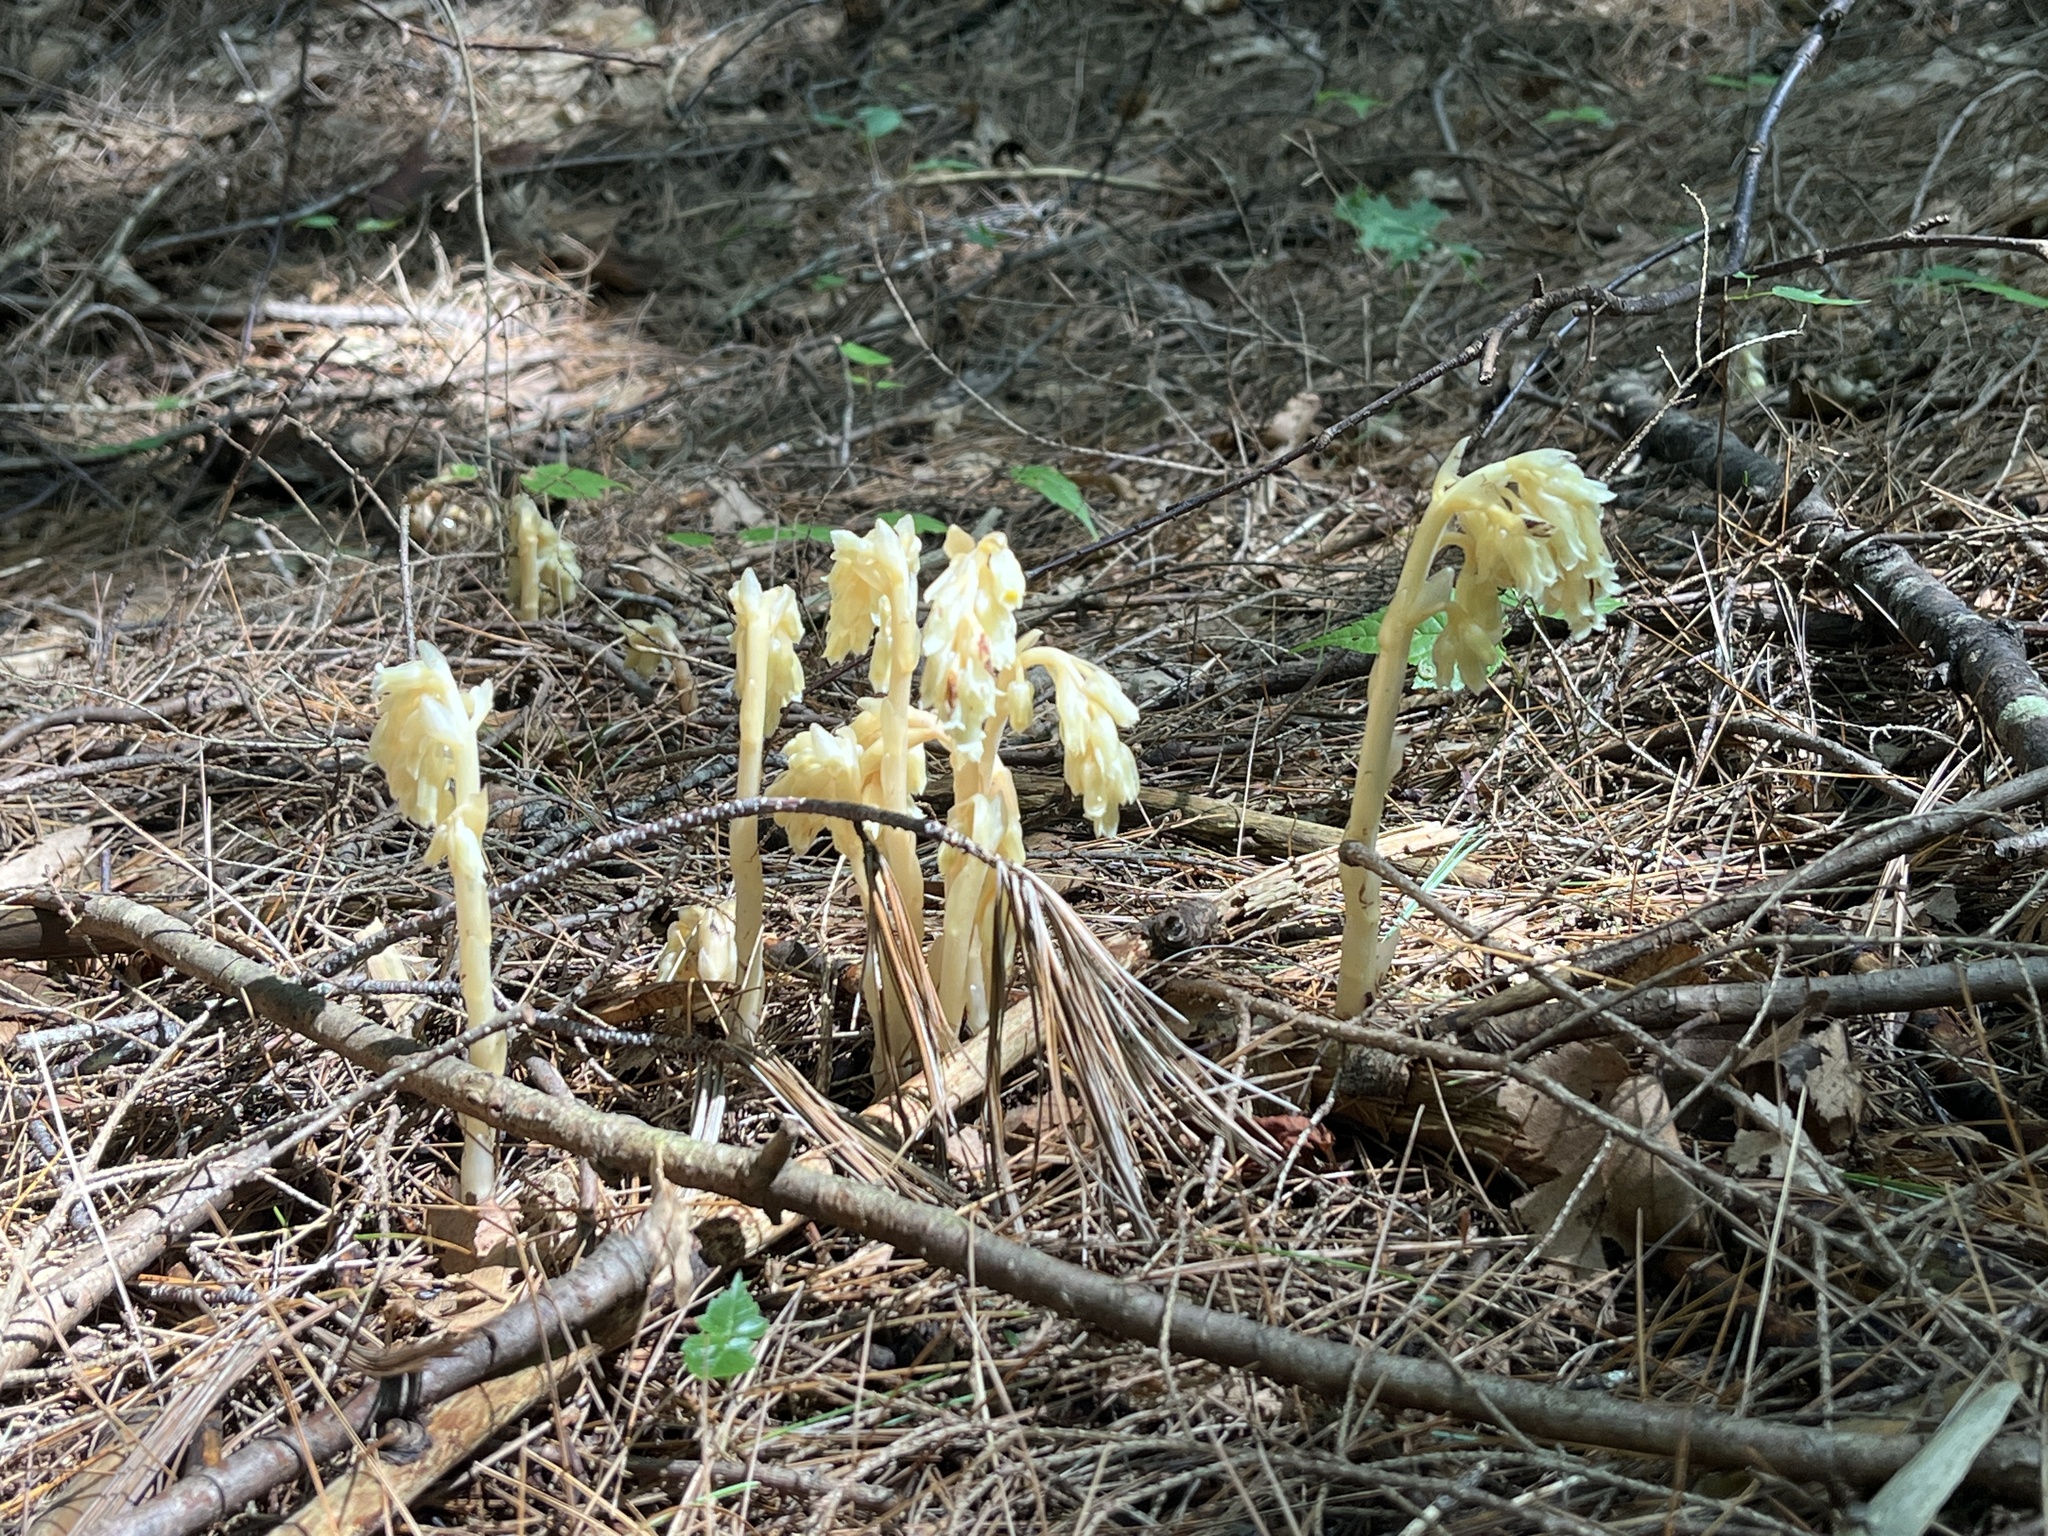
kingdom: Plantae
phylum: Tracheophyta
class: Magnoliopsida
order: Ericales
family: Ericaceae
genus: Hypopitys
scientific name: Hypopitys monotropa
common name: Yellow bird's-nest
